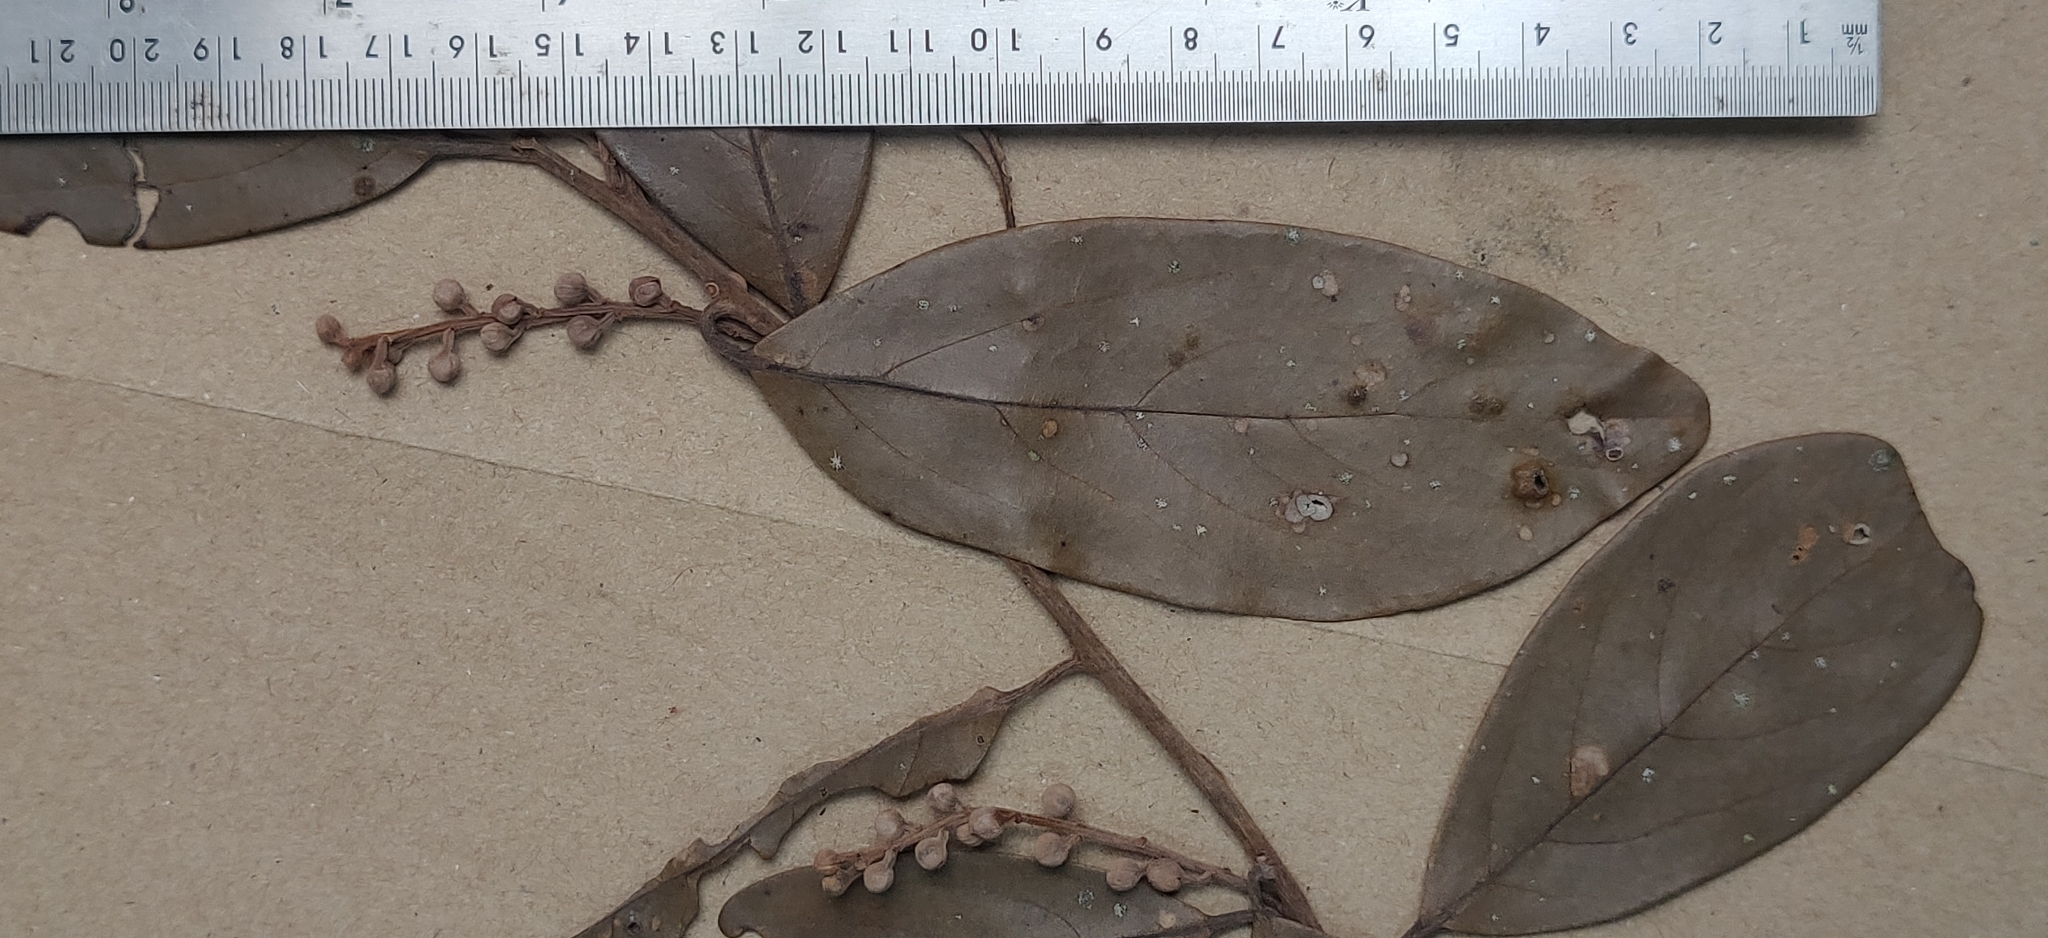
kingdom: Plantae
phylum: Tracheophyta
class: Magnoliopsida
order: Laurales
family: Lauraceae
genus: Phoebe
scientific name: Phoebe cathia
